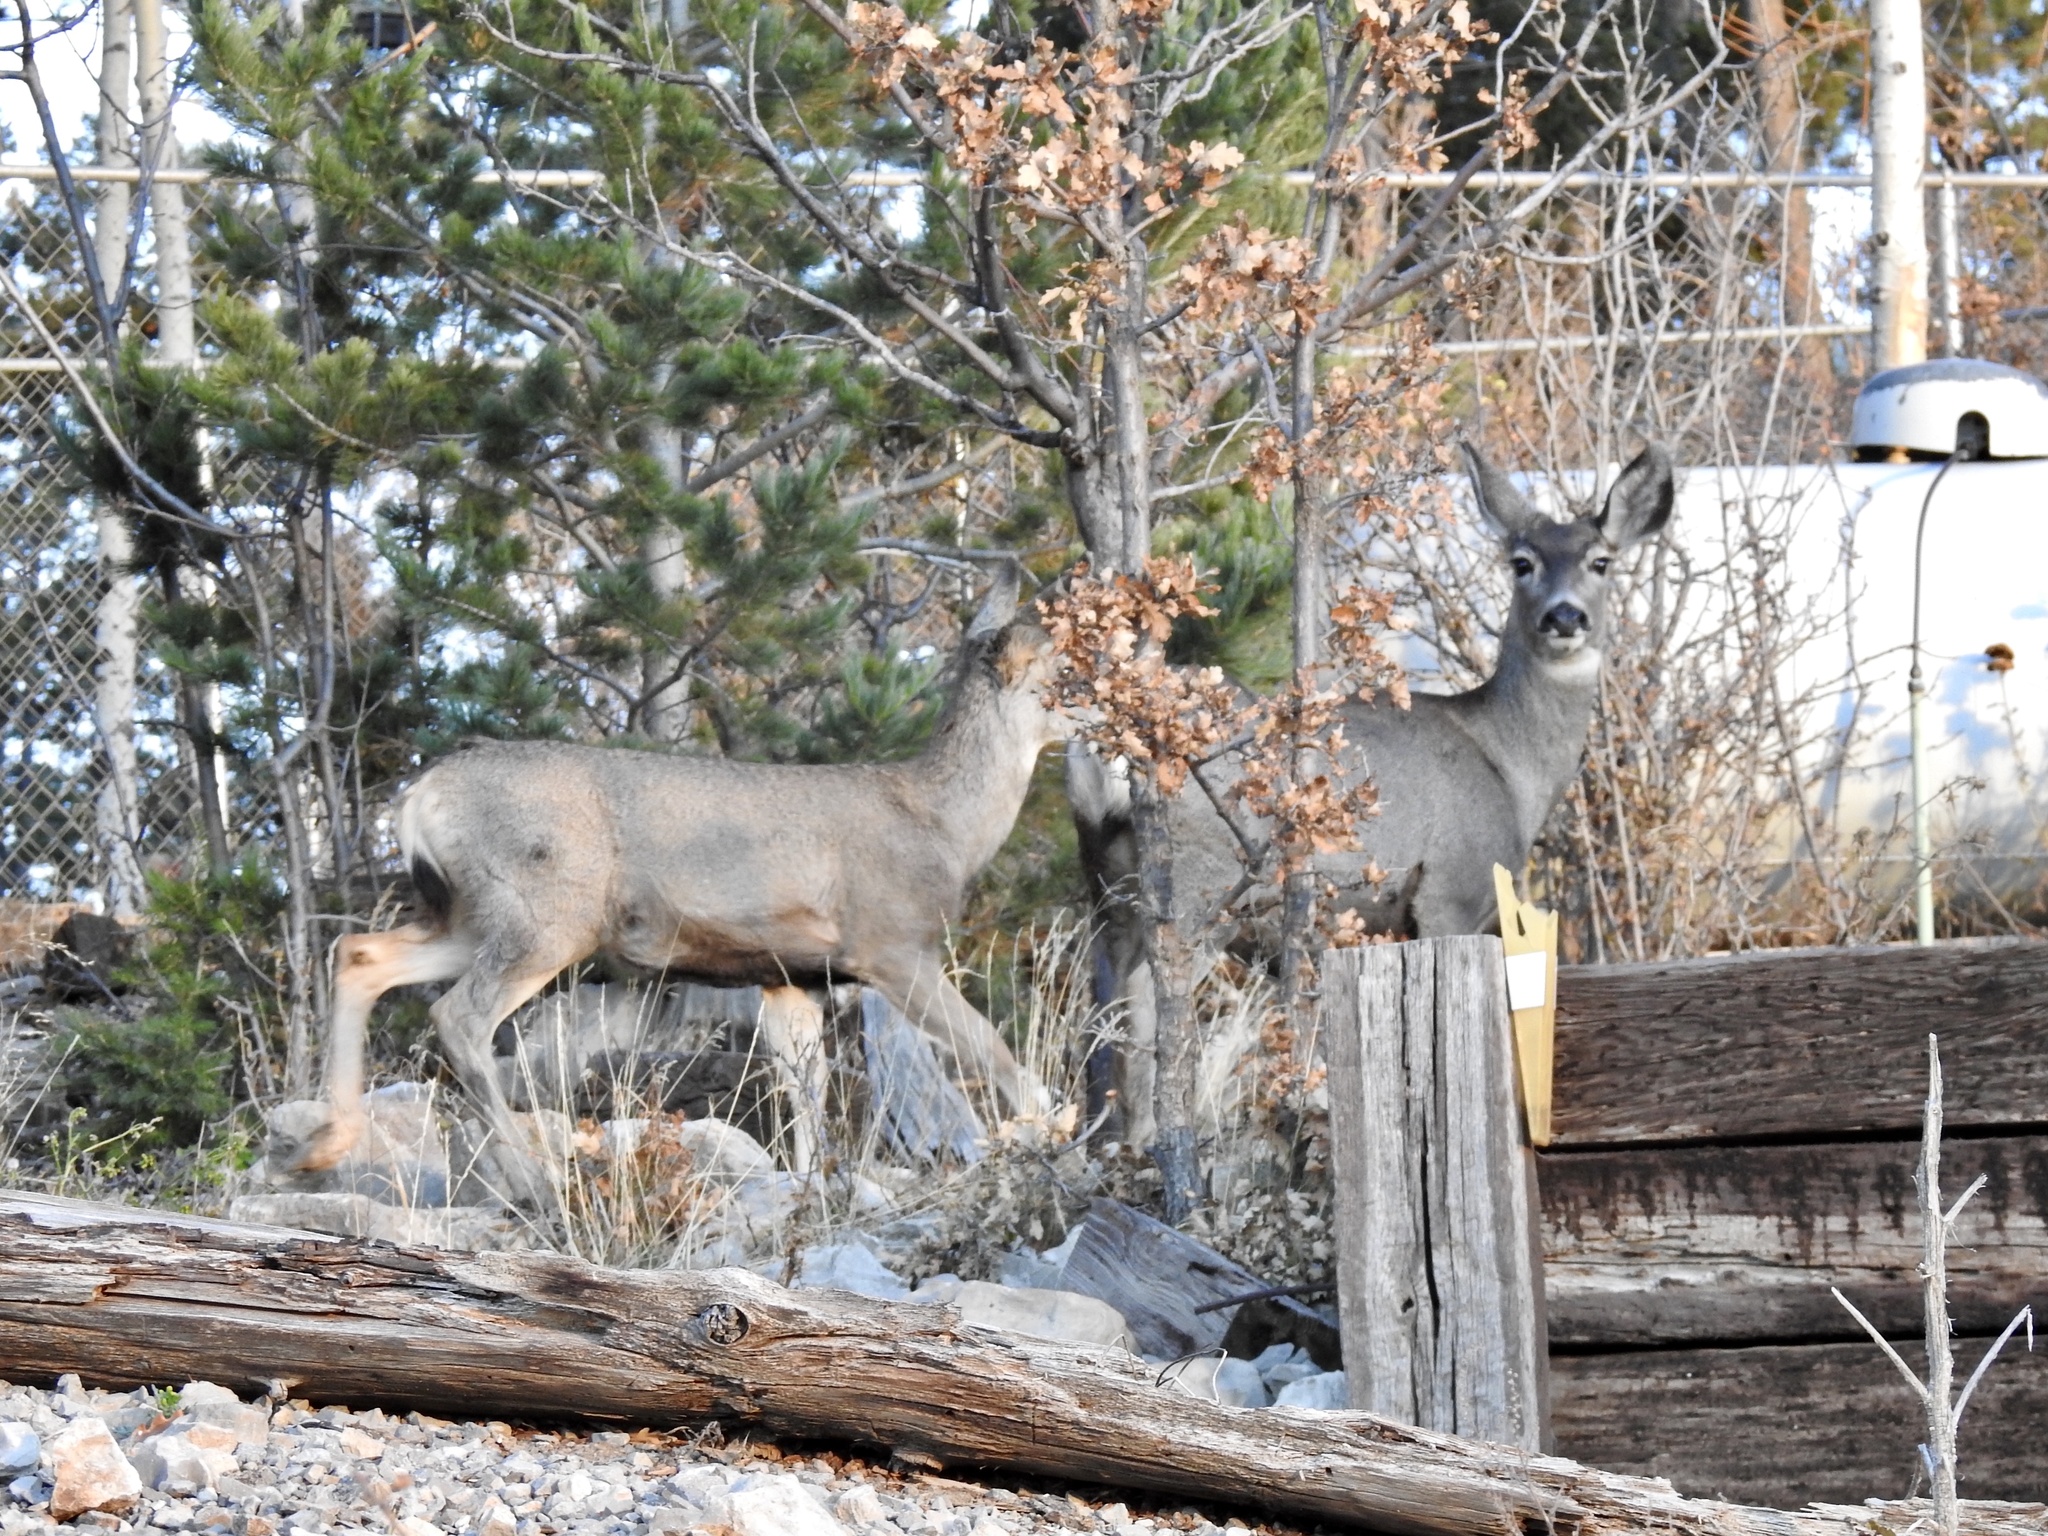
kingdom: Animalia
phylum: Chordata
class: Mammalia
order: Artiodactyla
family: Cervidae
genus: Odocoileus
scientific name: Odocoileus hemionus
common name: Mule deer
